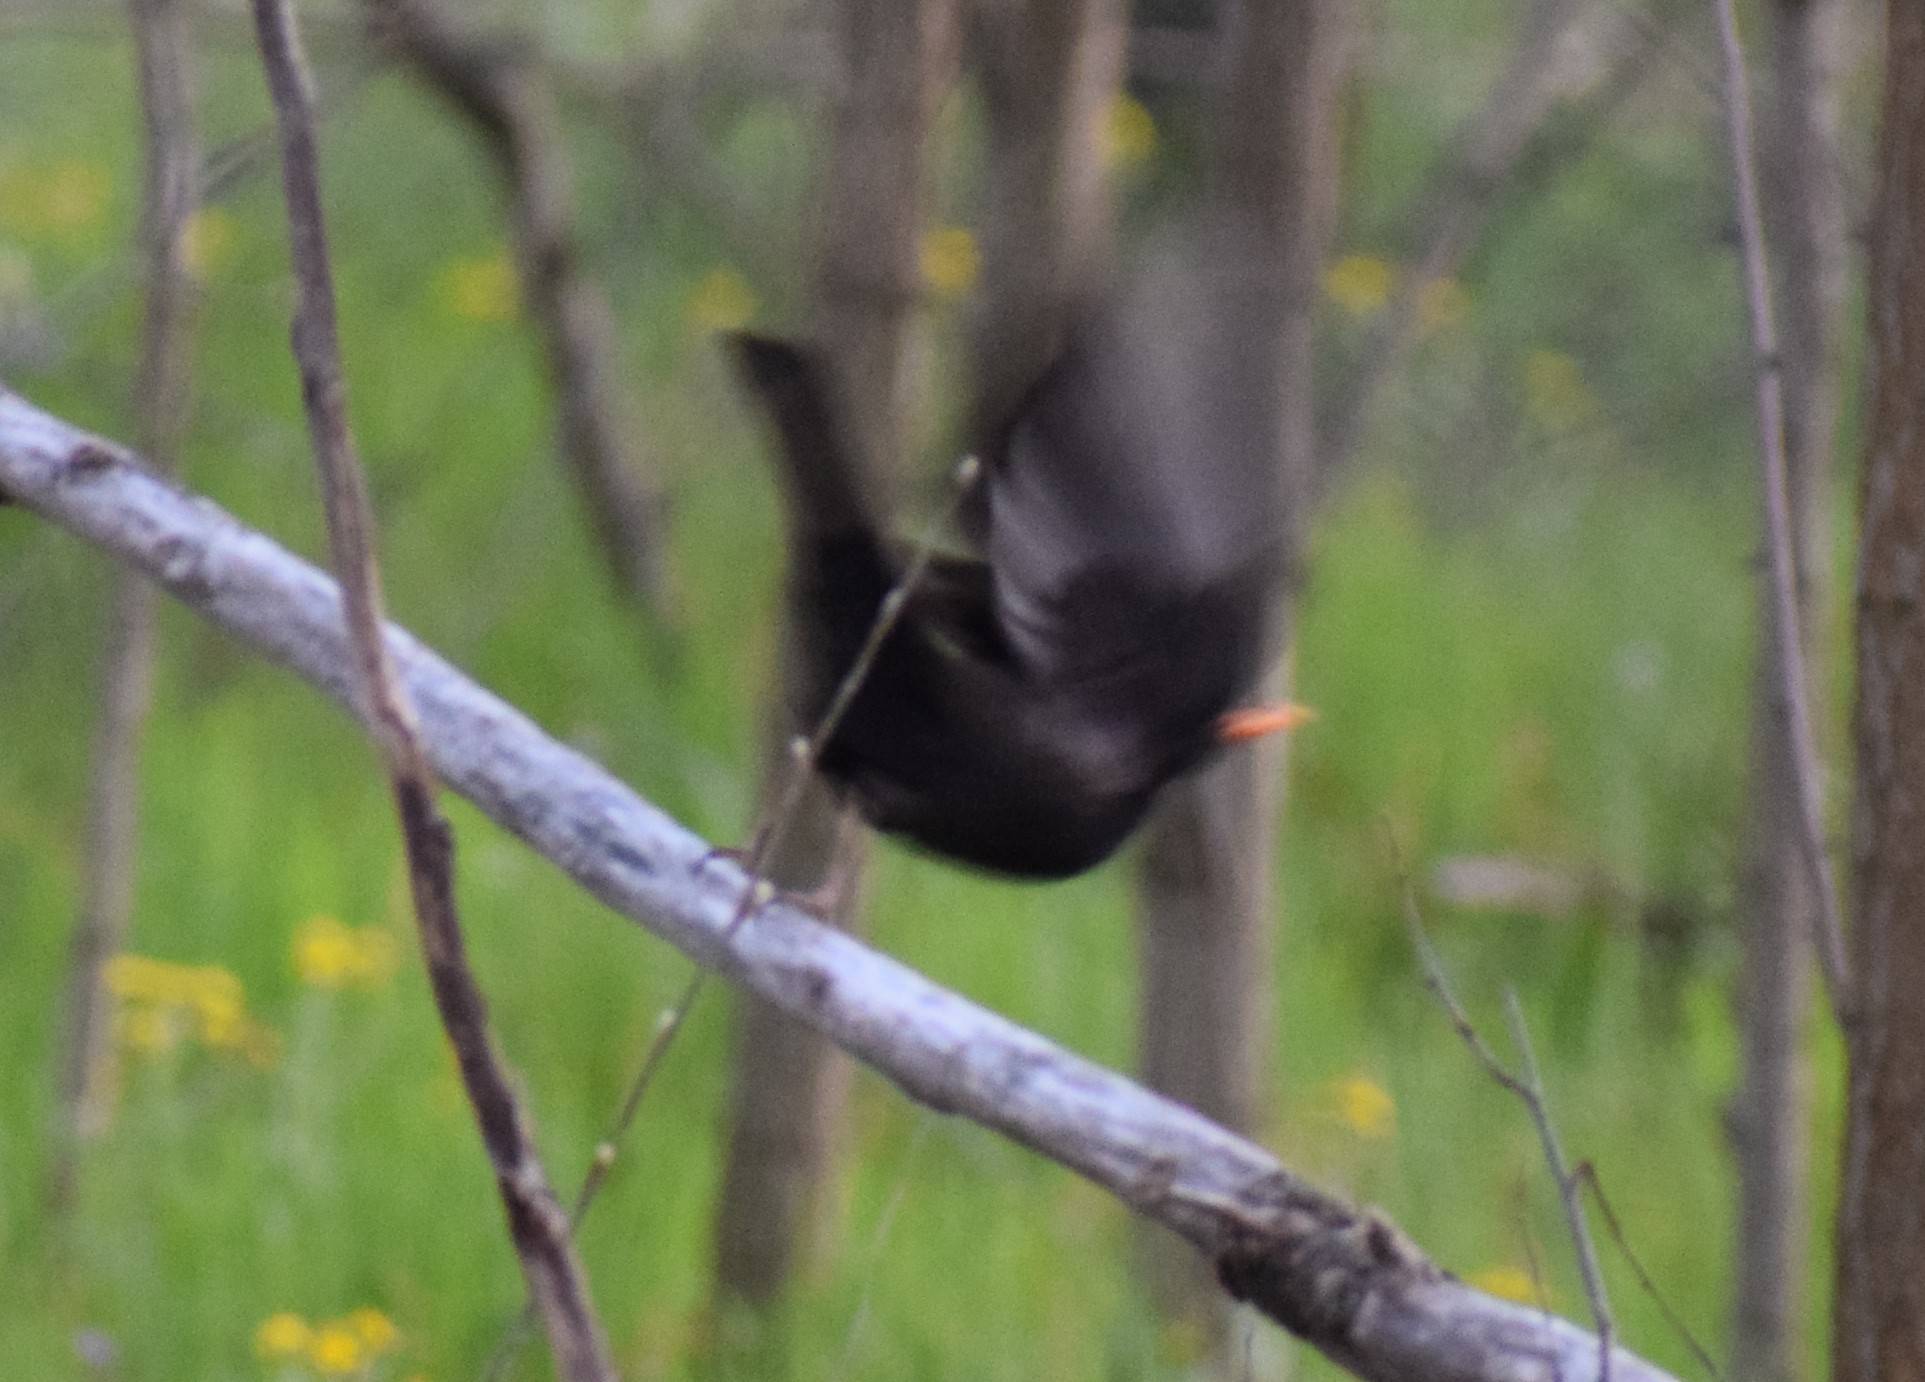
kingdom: Animalia
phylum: Chordata
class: Aves
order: Passeriformes
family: Turdidae
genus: Turdus
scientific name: Turdus merula
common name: Common blackbird
